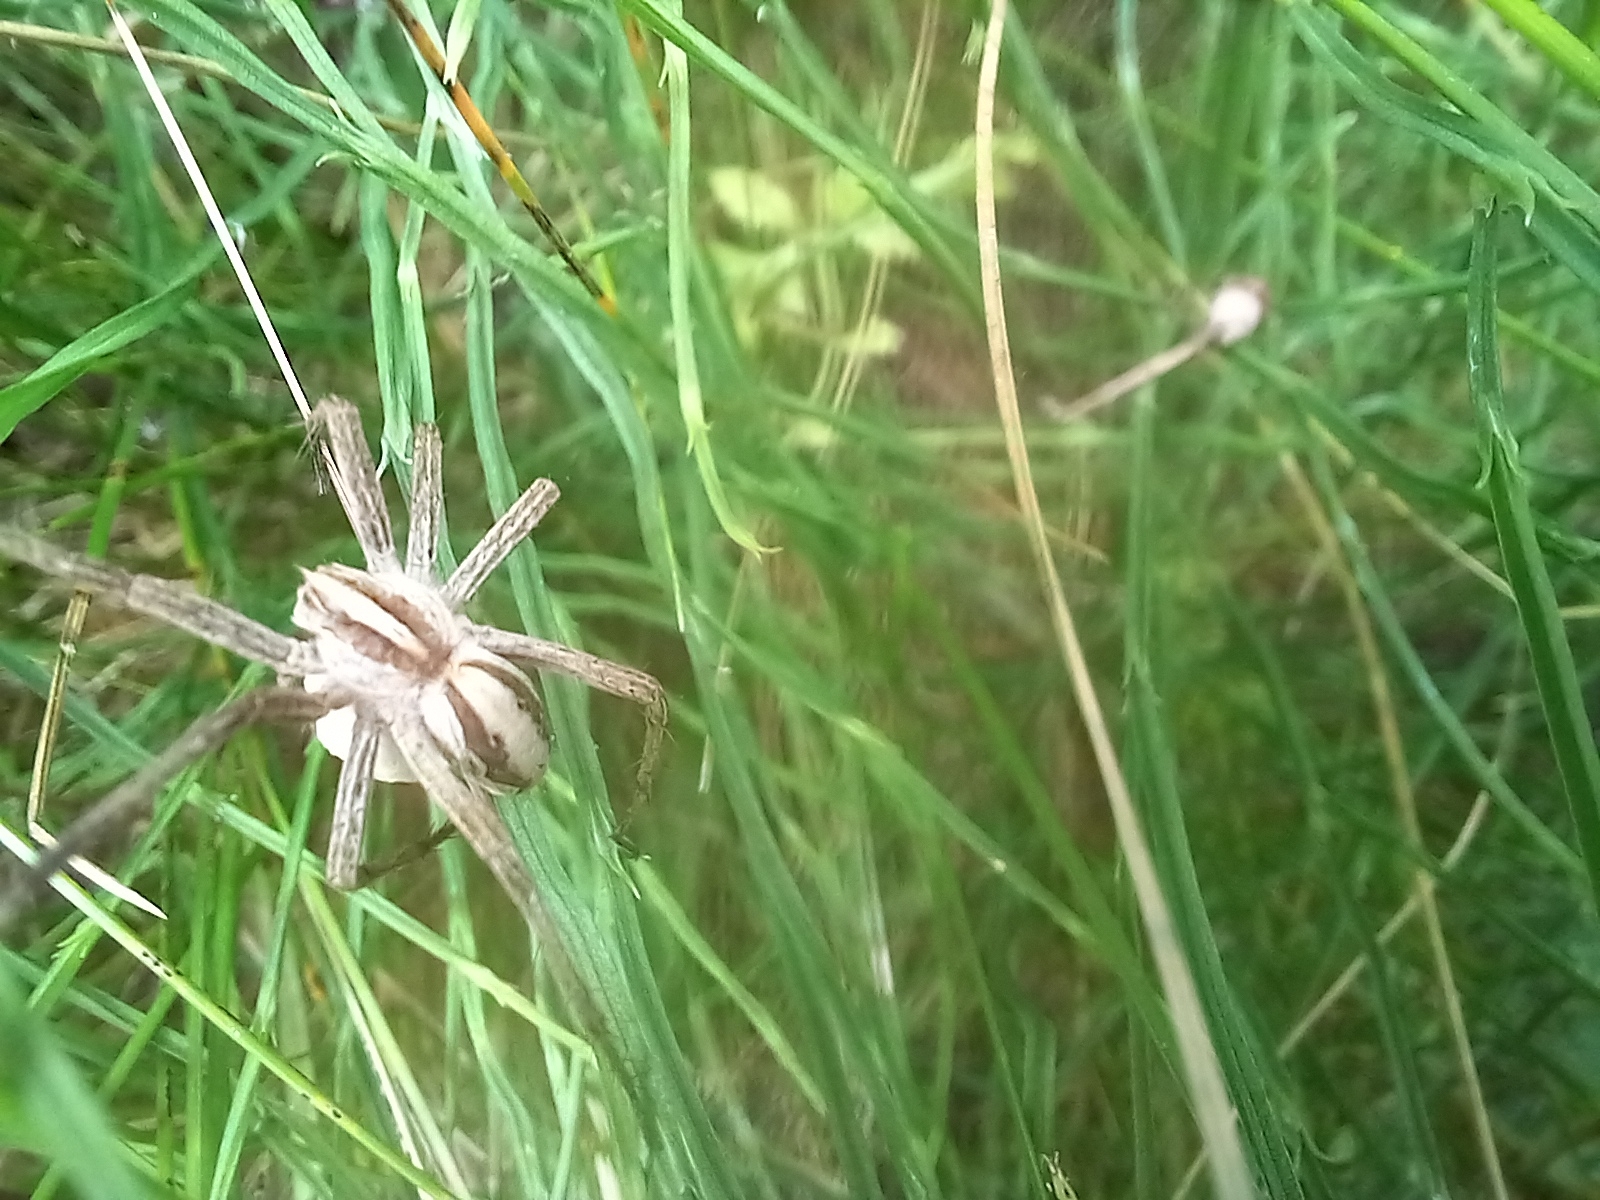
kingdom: Animalia
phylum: Arthropoda
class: Arachnida
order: Araneae
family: Pisauridae
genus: Pisaura
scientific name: Pisaura mirabilis
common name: Tent spider
